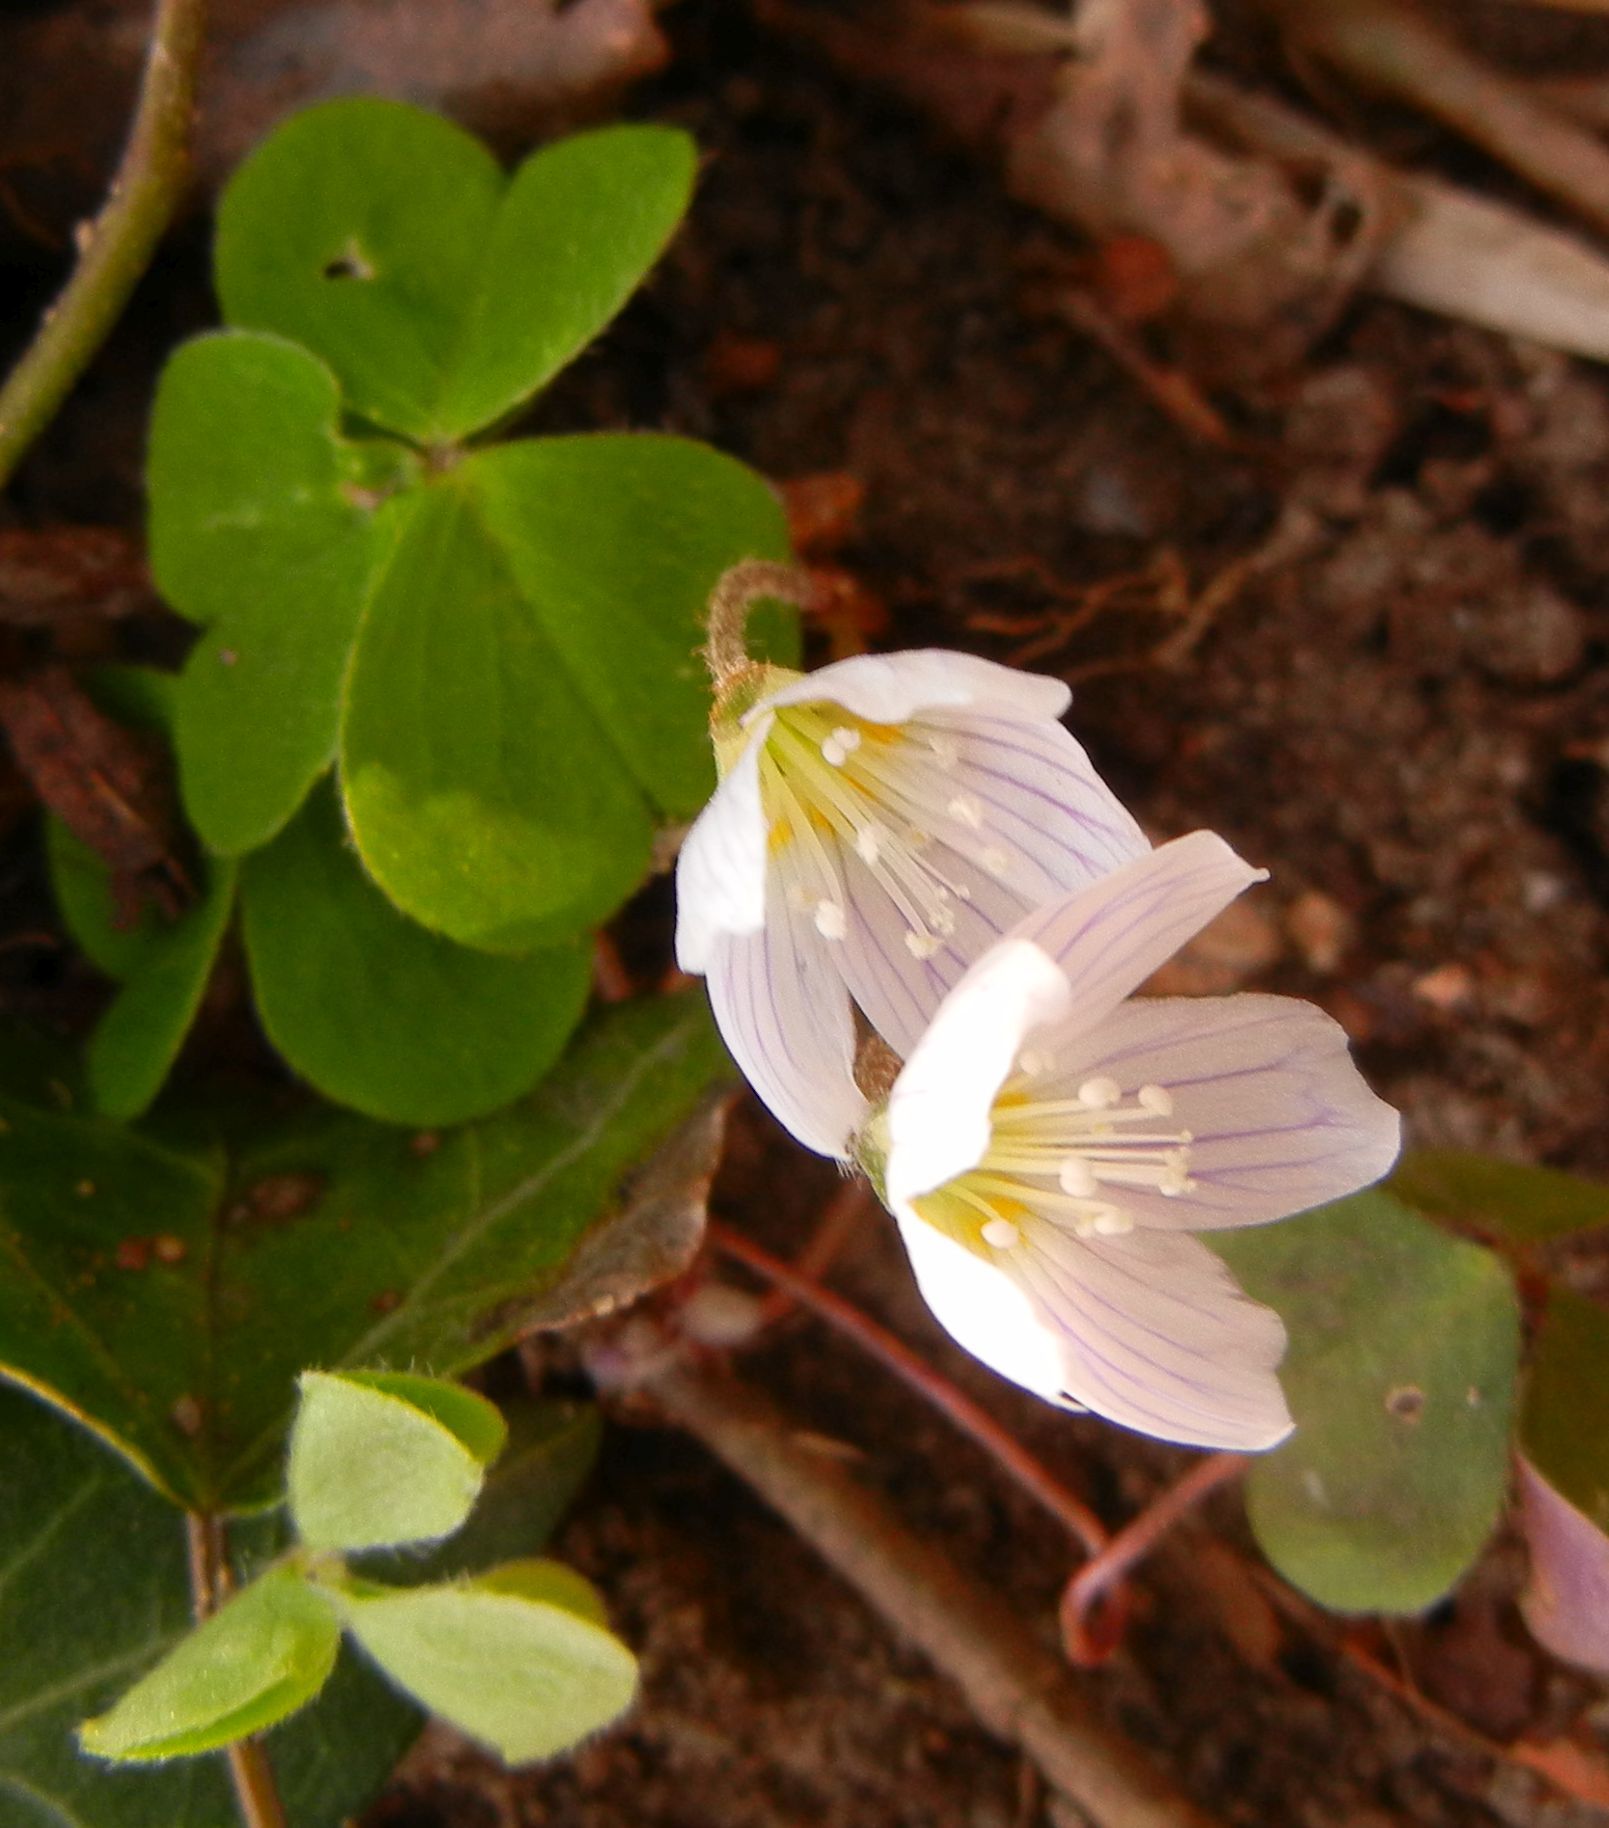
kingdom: Plantae
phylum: Tracheophyta
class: Magnoliopsida
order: Oxalidales
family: Oxalidaceae
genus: Oxalis
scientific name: Oxalis acetosella
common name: Wood-sorrel
